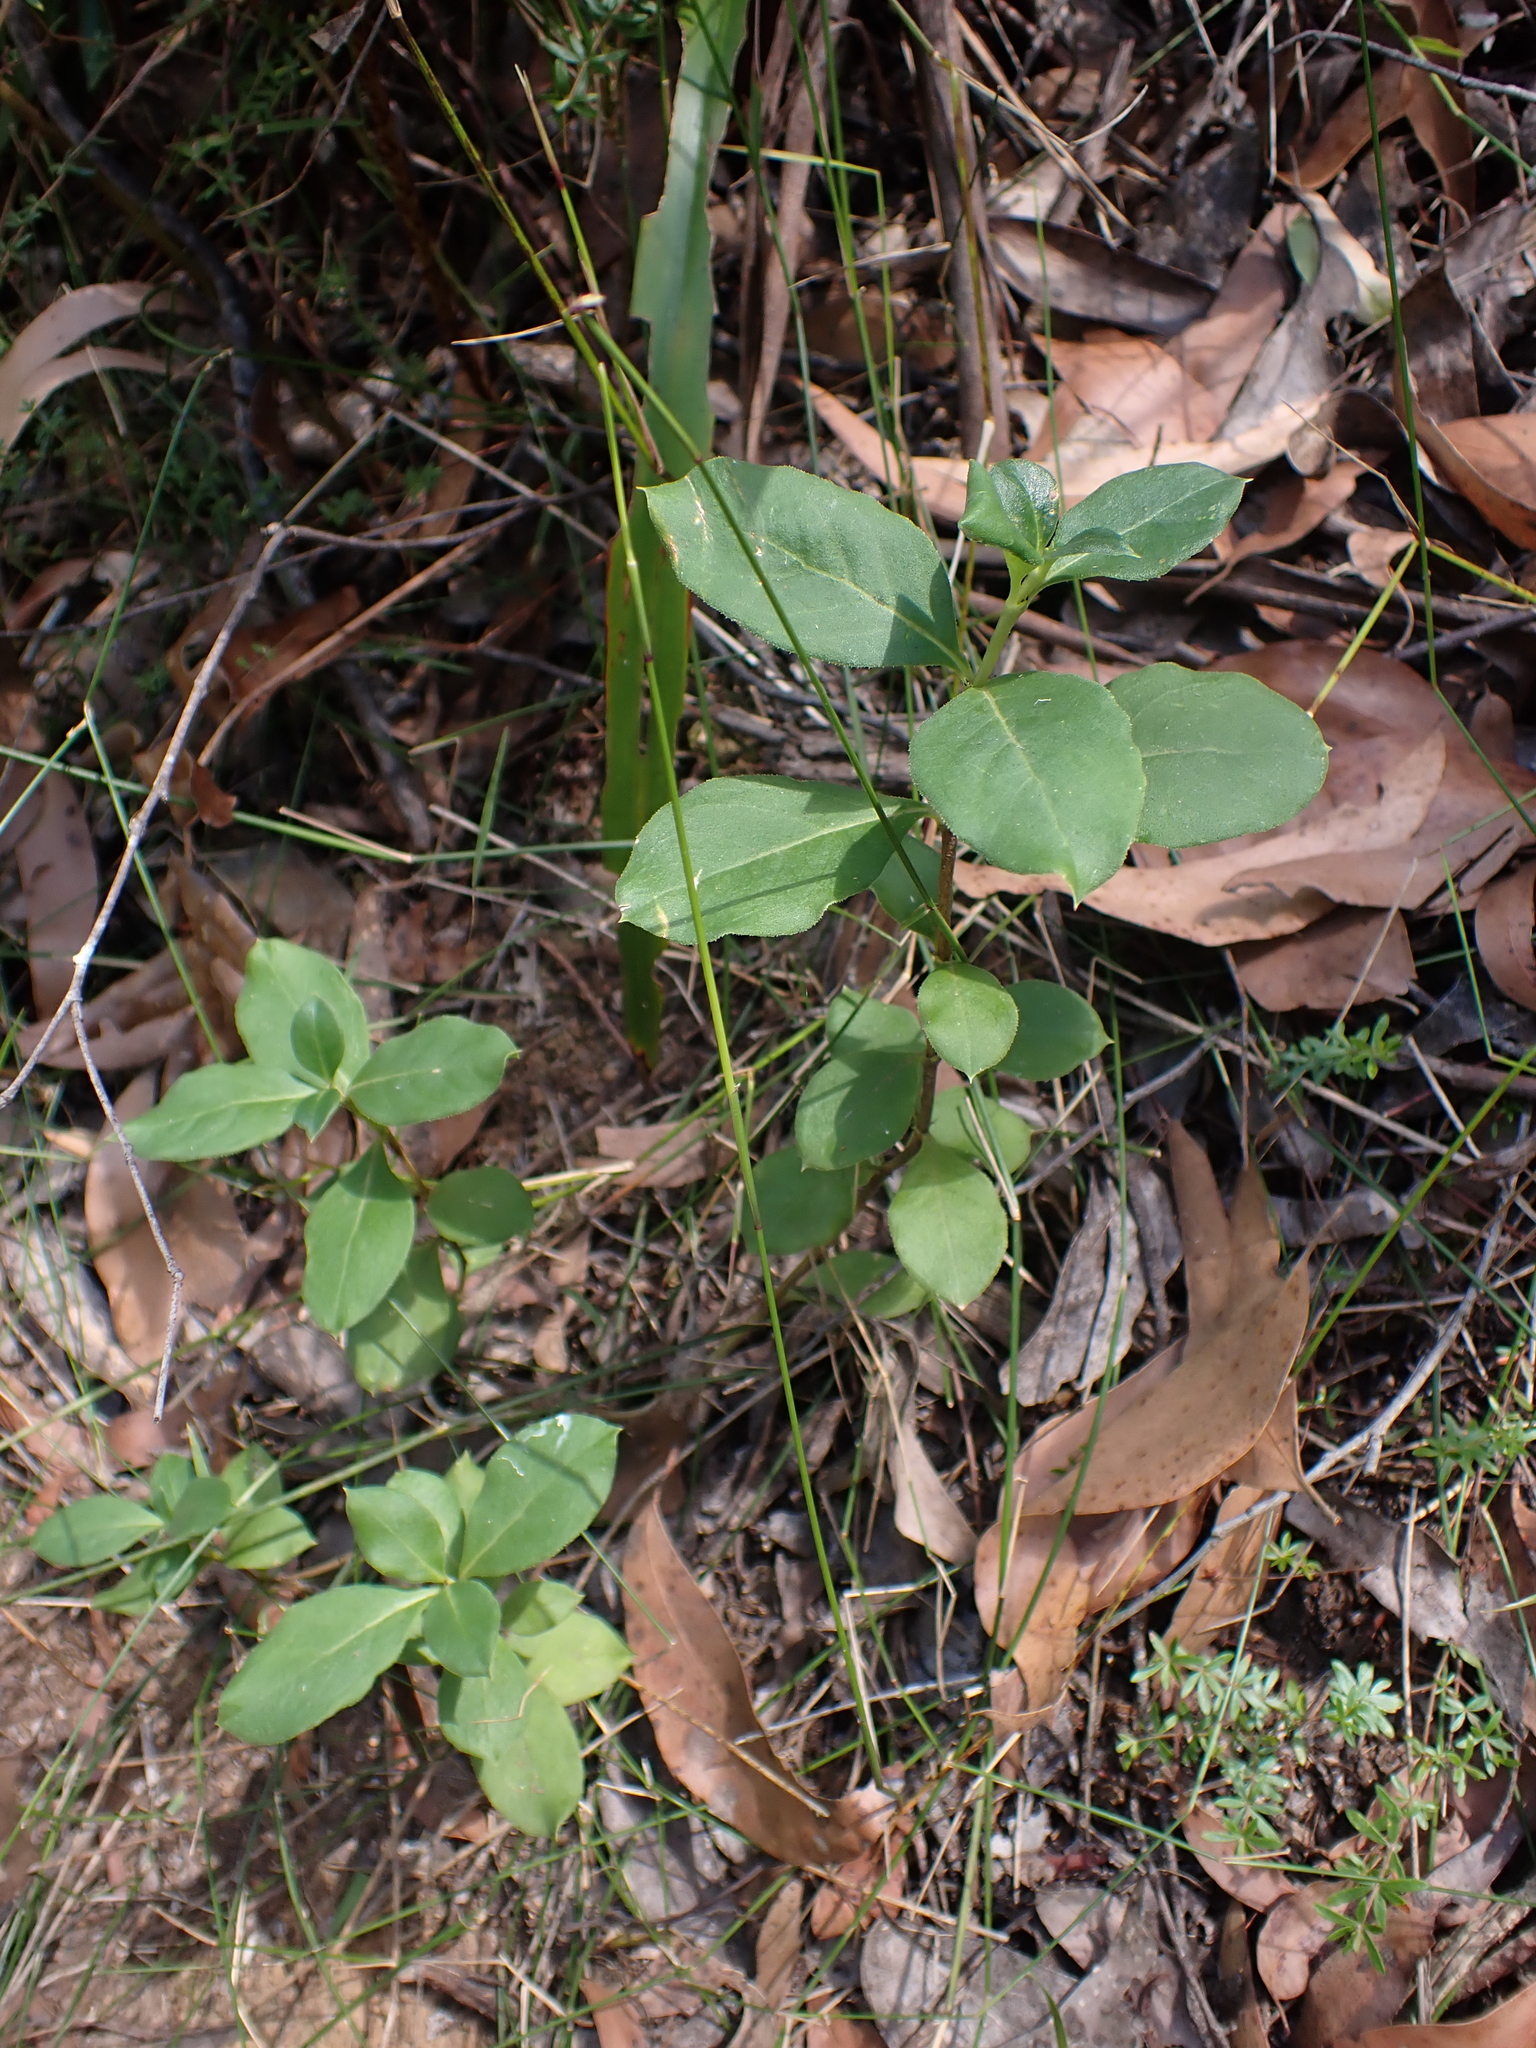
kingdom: Plantae
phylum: Tracheophyta
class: Magnoliopsida
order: Gentianales
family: Rubiaceae
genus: Coprosma
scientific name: Coprosma hirtella
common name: Rough coprosma
